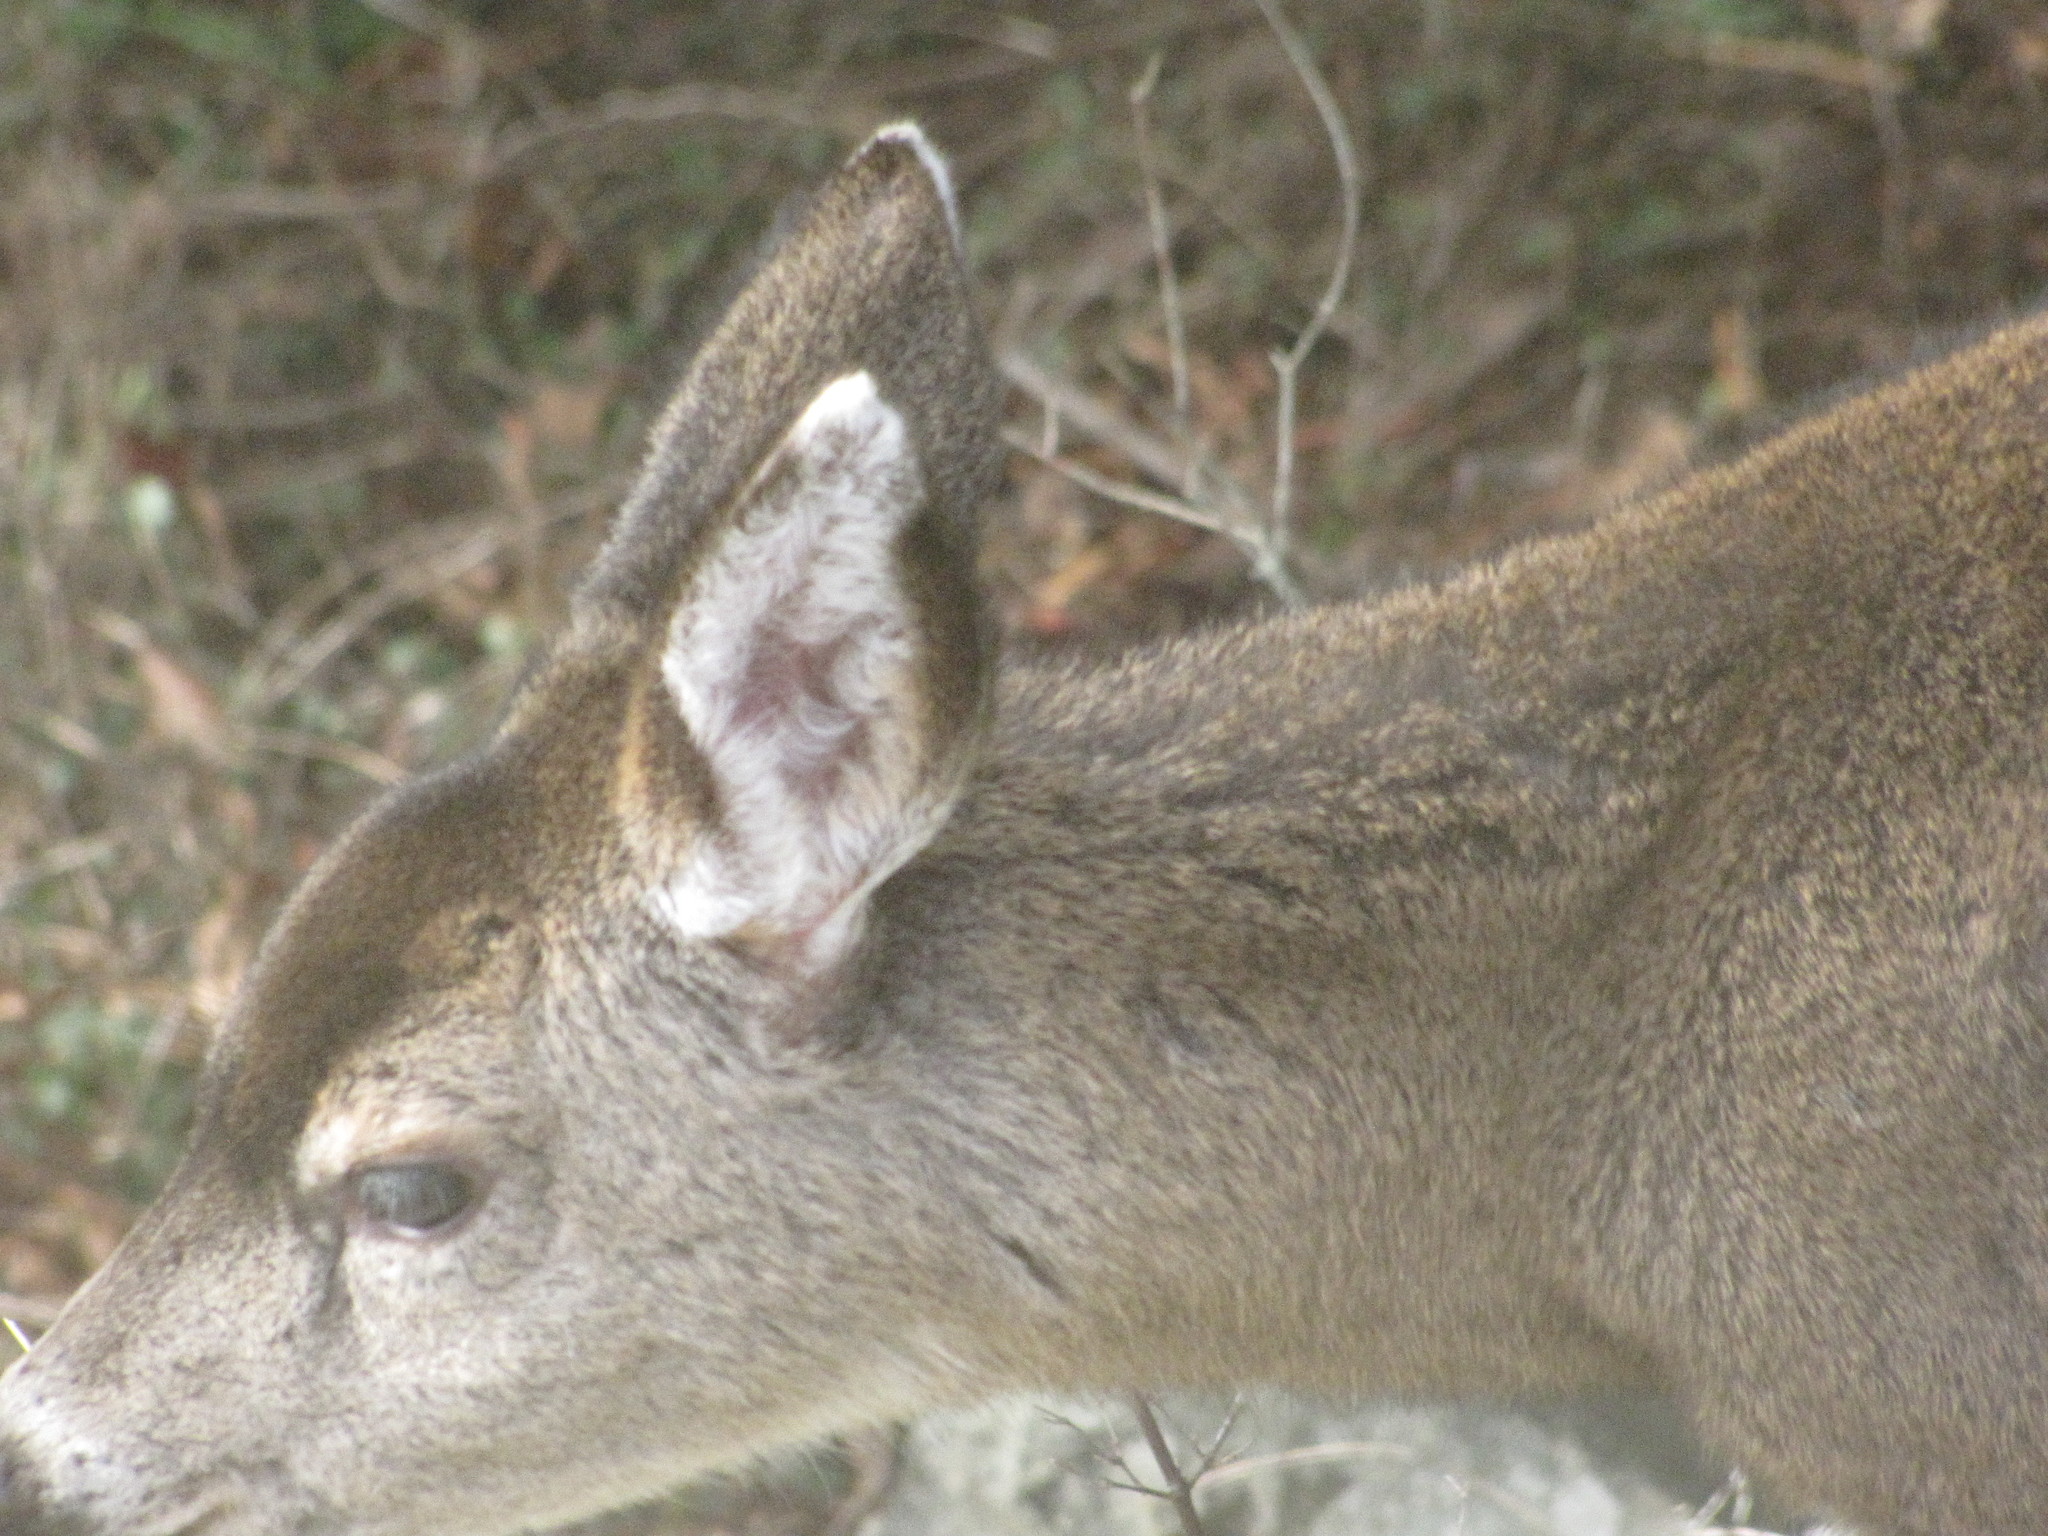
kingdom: Animalia
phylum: Chordata
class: Mammalia
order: Artiodactyla
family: Cervidae
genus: Odocoileus
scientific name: Odocoileus hemionus
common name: Mule deer
